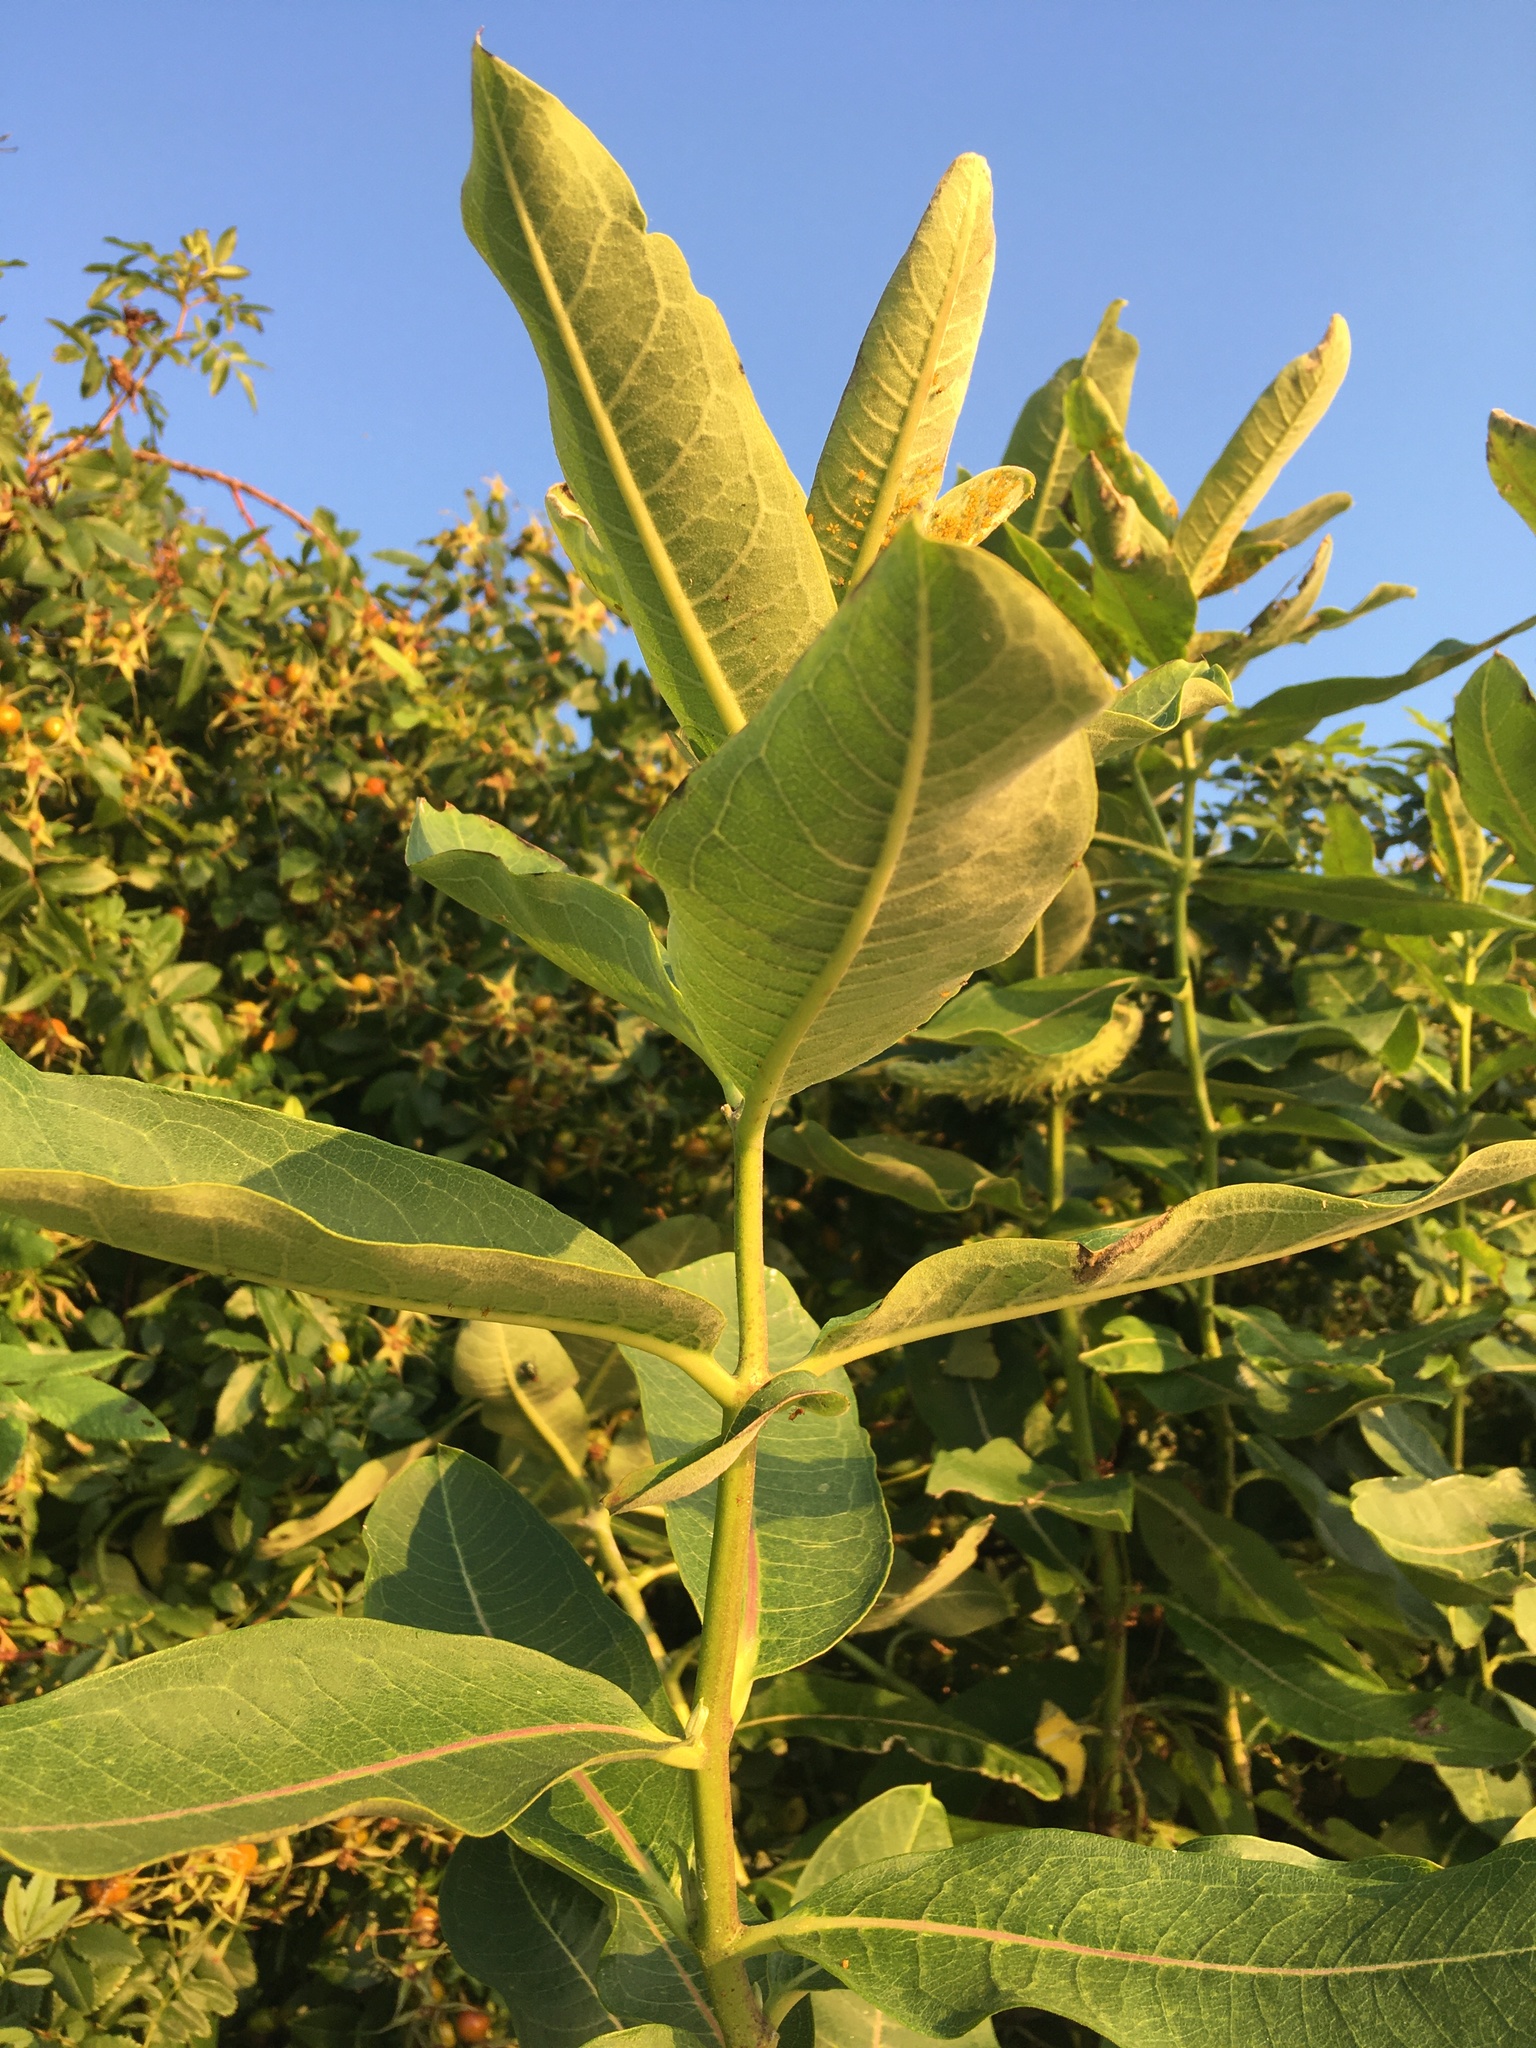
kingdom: Plantae
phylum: Tracheophyta
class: Magnoliopsida
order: Gentianales
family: Apocynaceae
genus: Asclepias
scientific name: Asclepias syriaca
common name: Common milkweed
